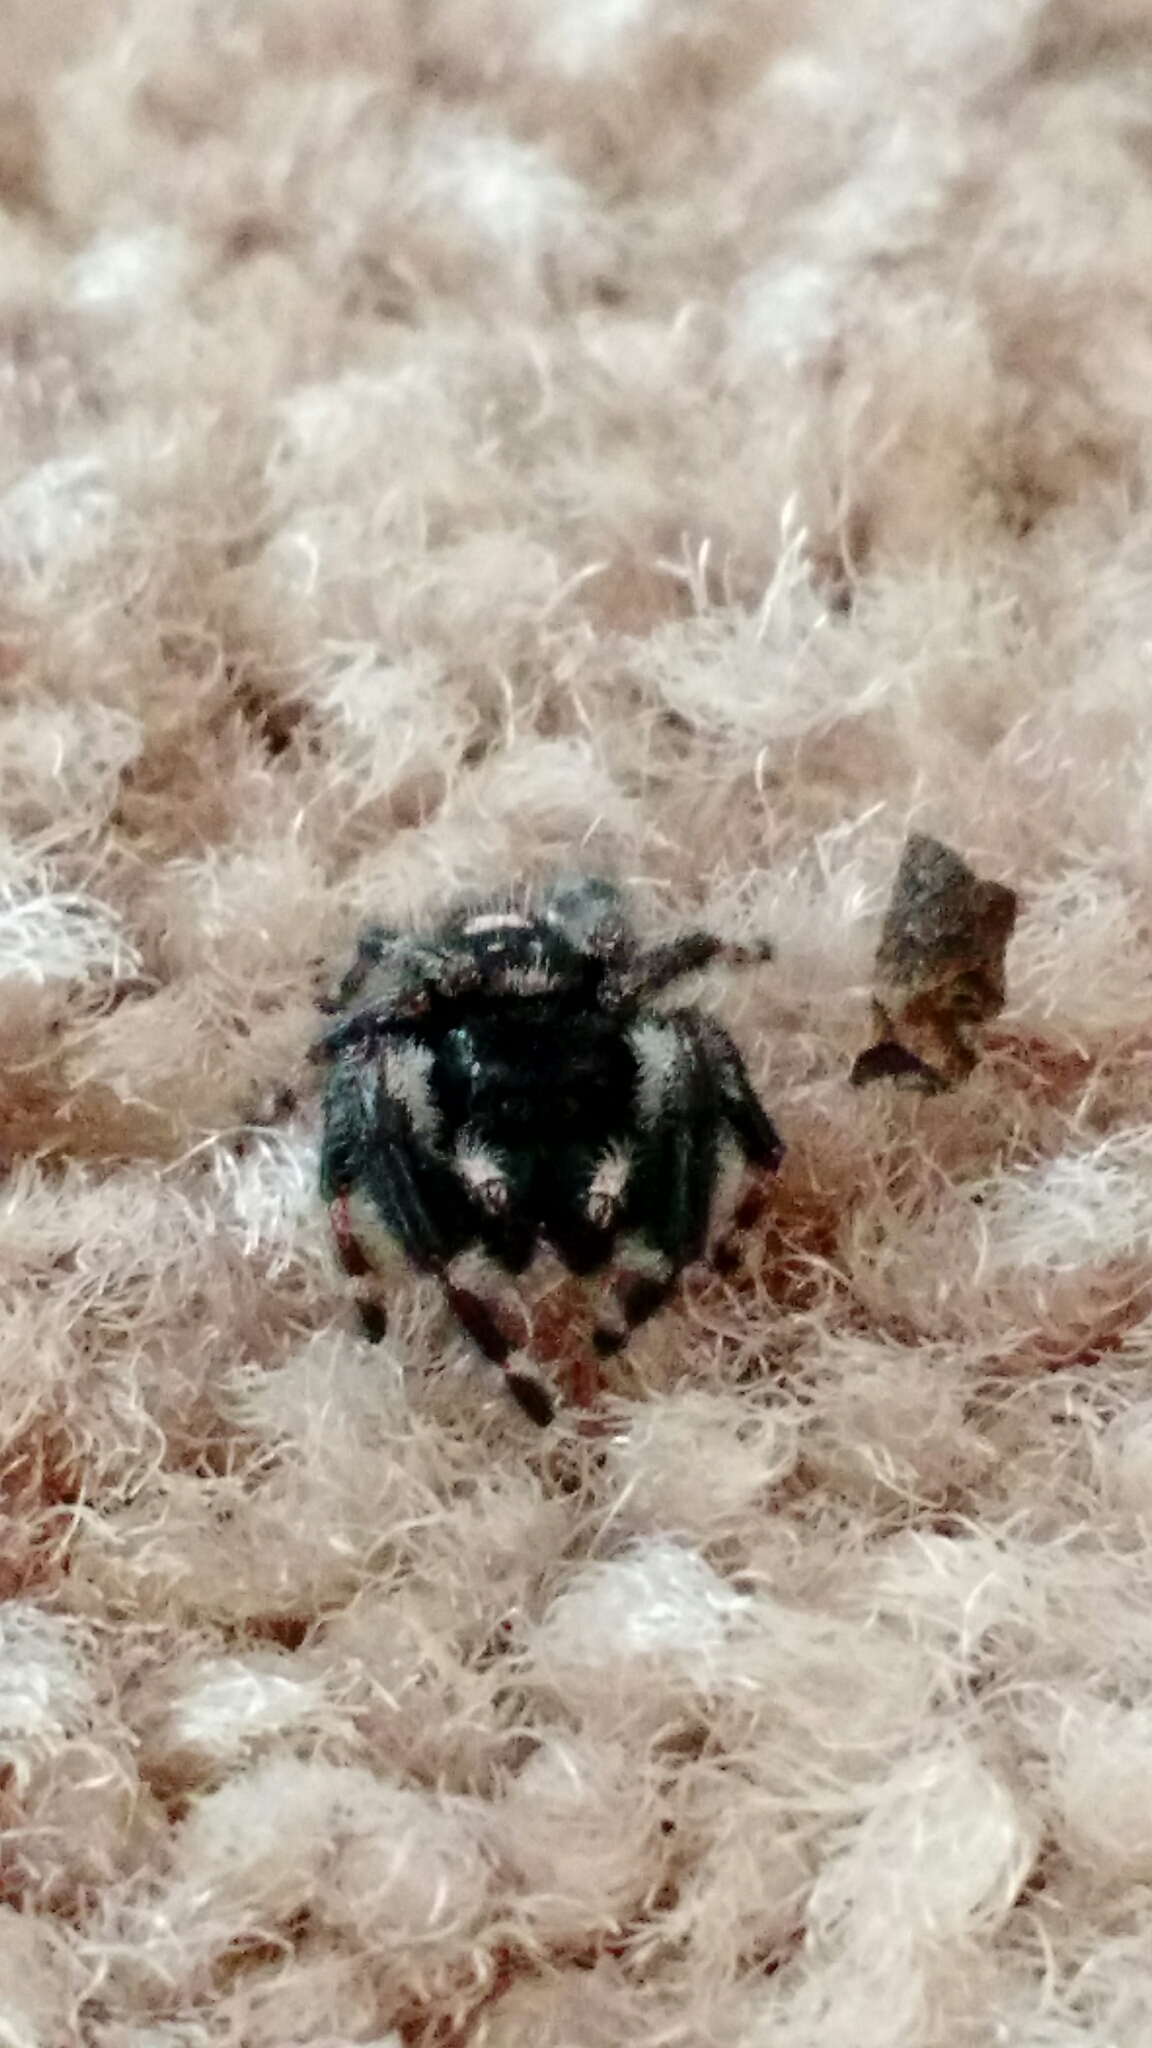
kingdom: Animalia
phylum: Arthropoda
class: Arachnida
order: Araneae
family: Salticidae
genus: Phidippus
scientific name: Phidippus audax
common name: Bold jumper
